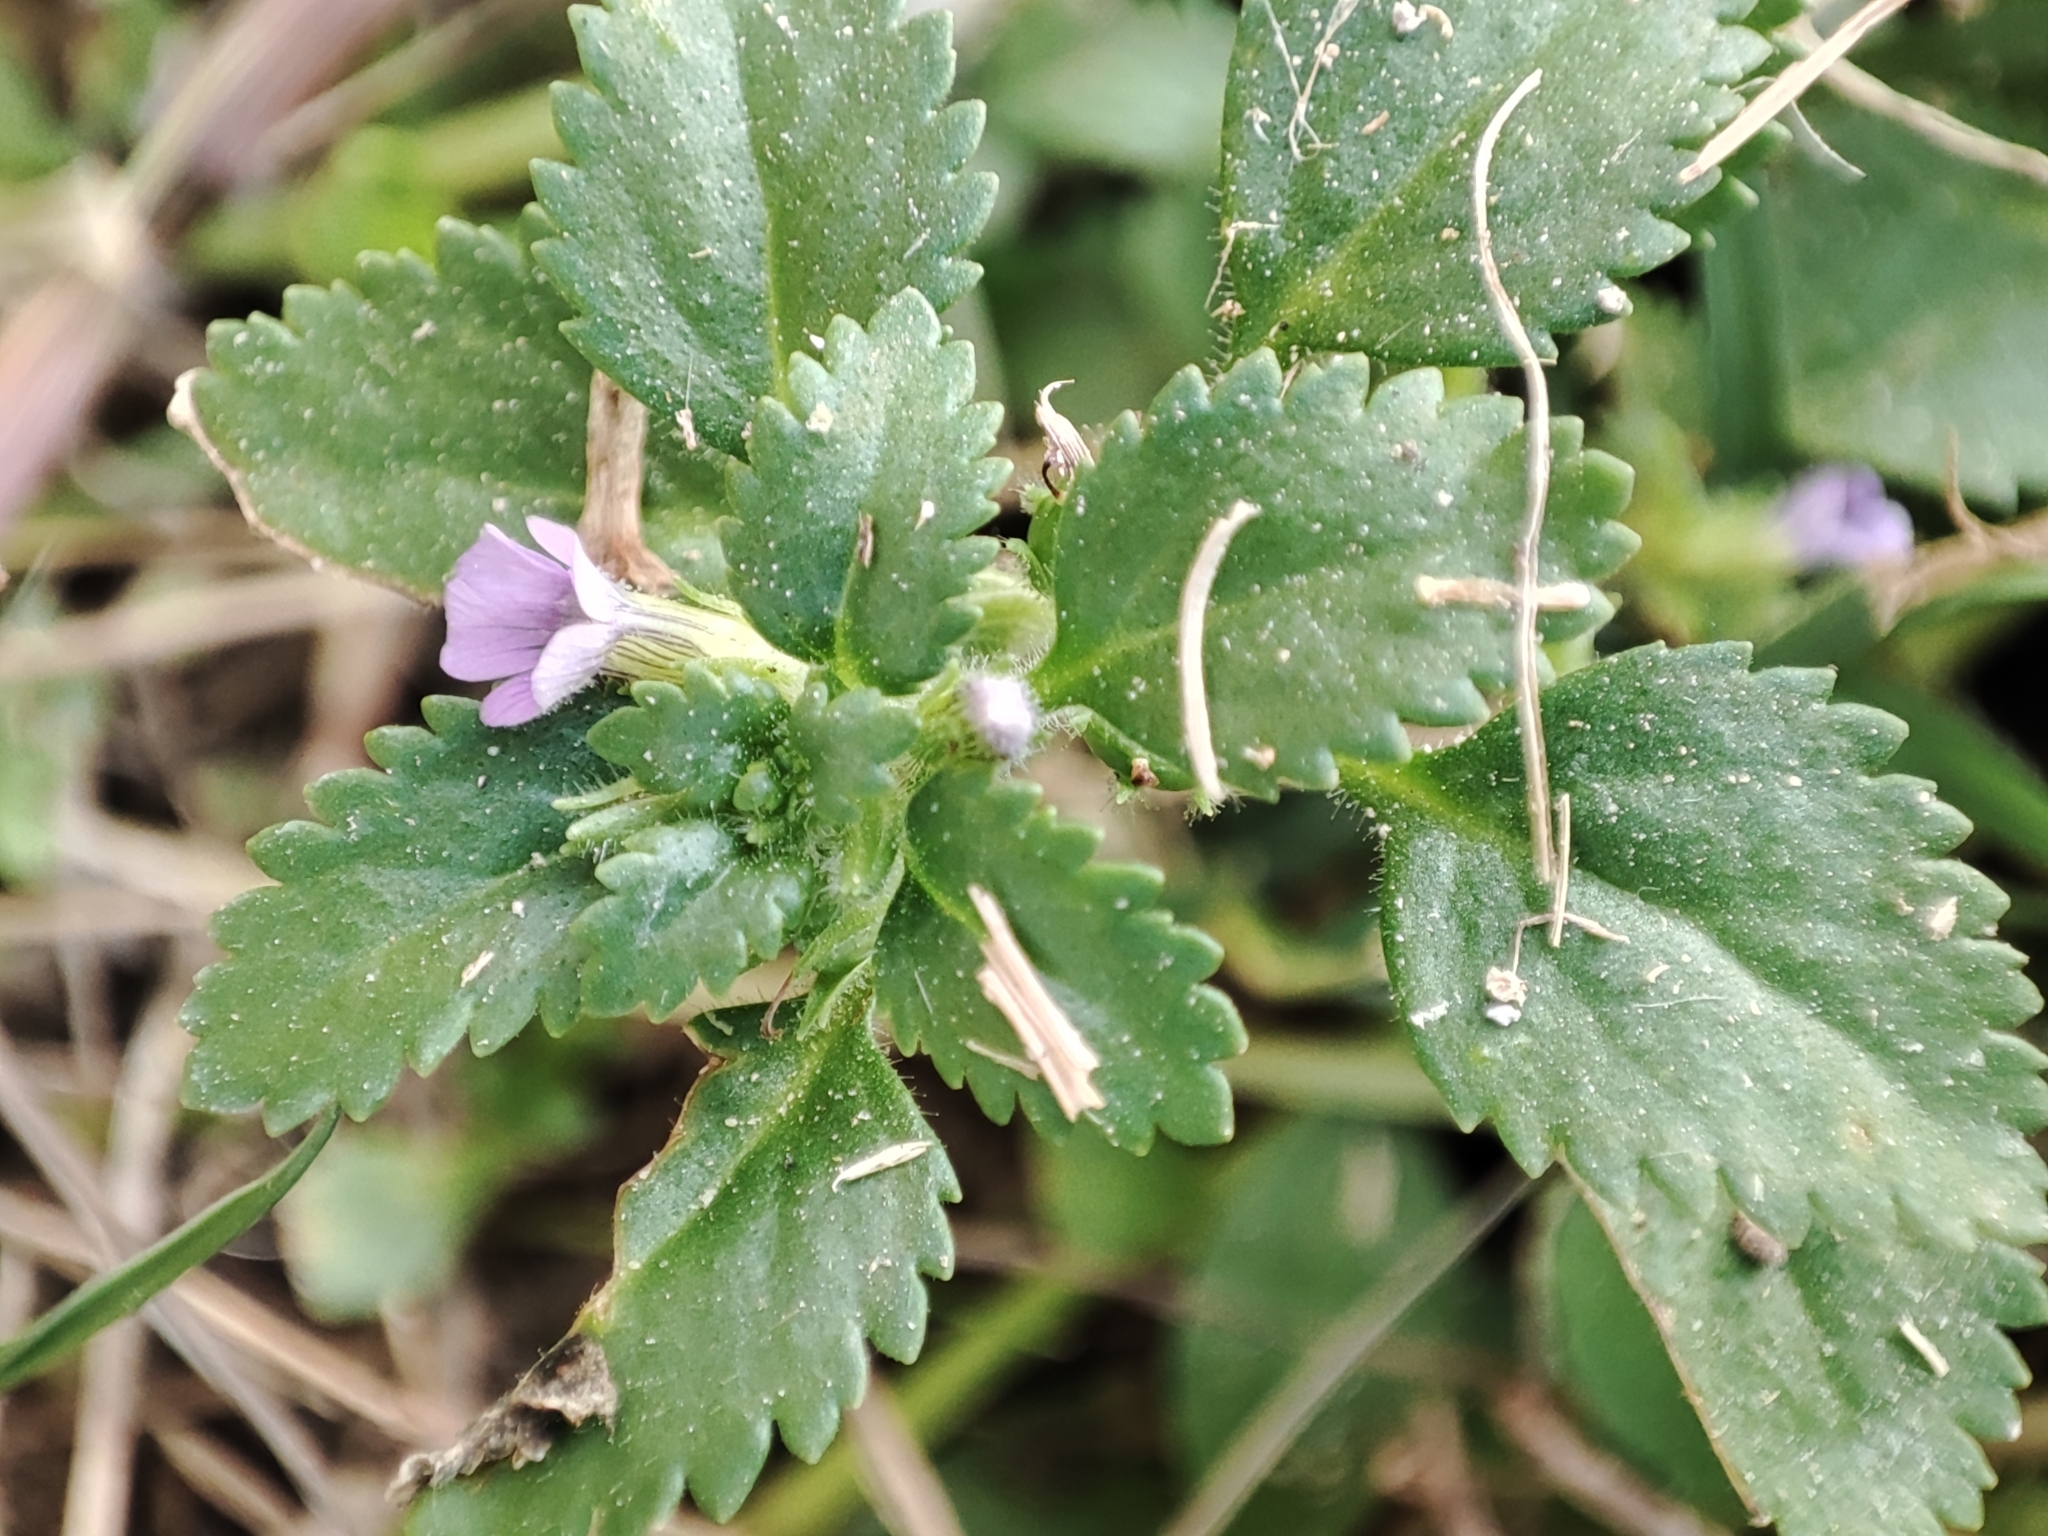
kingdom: Plantae
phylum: Tracheophyta
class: Magnoliopsida
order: Lamiales
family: Plantaginaceae
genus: Stemodia
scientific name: Stemodia verticillata
